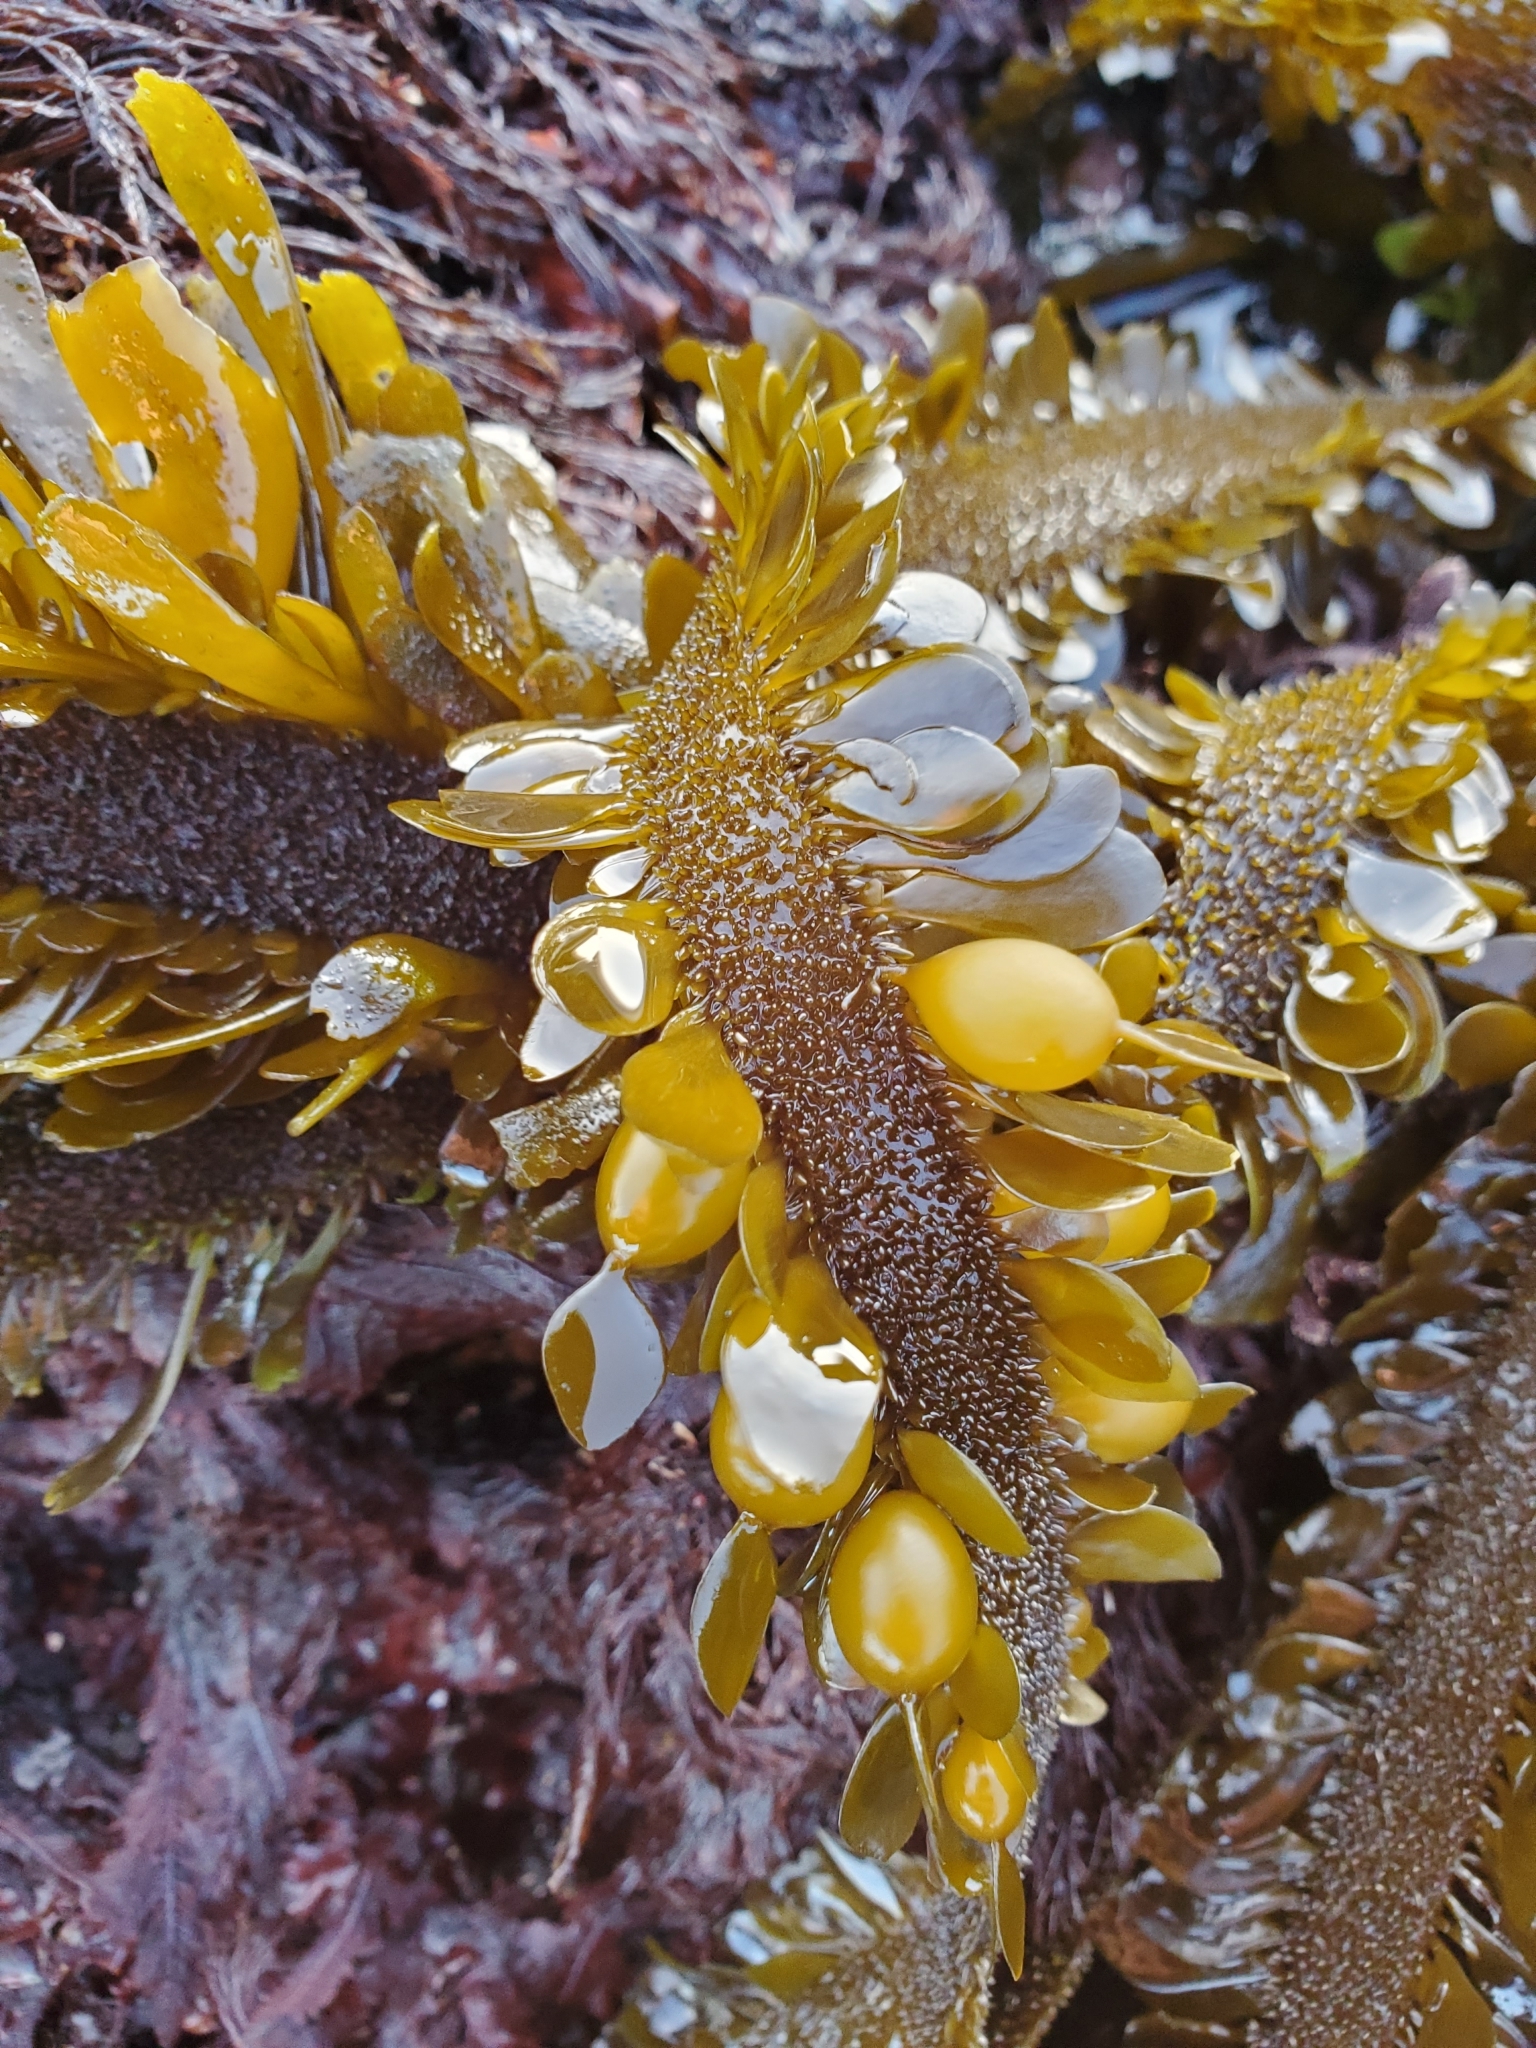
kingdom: Chromista
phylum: Ochrophyta
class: Phaeophyceae
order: Laminariales
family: Lessoniaceae
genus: Egregia
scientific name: Egregia menziesii
